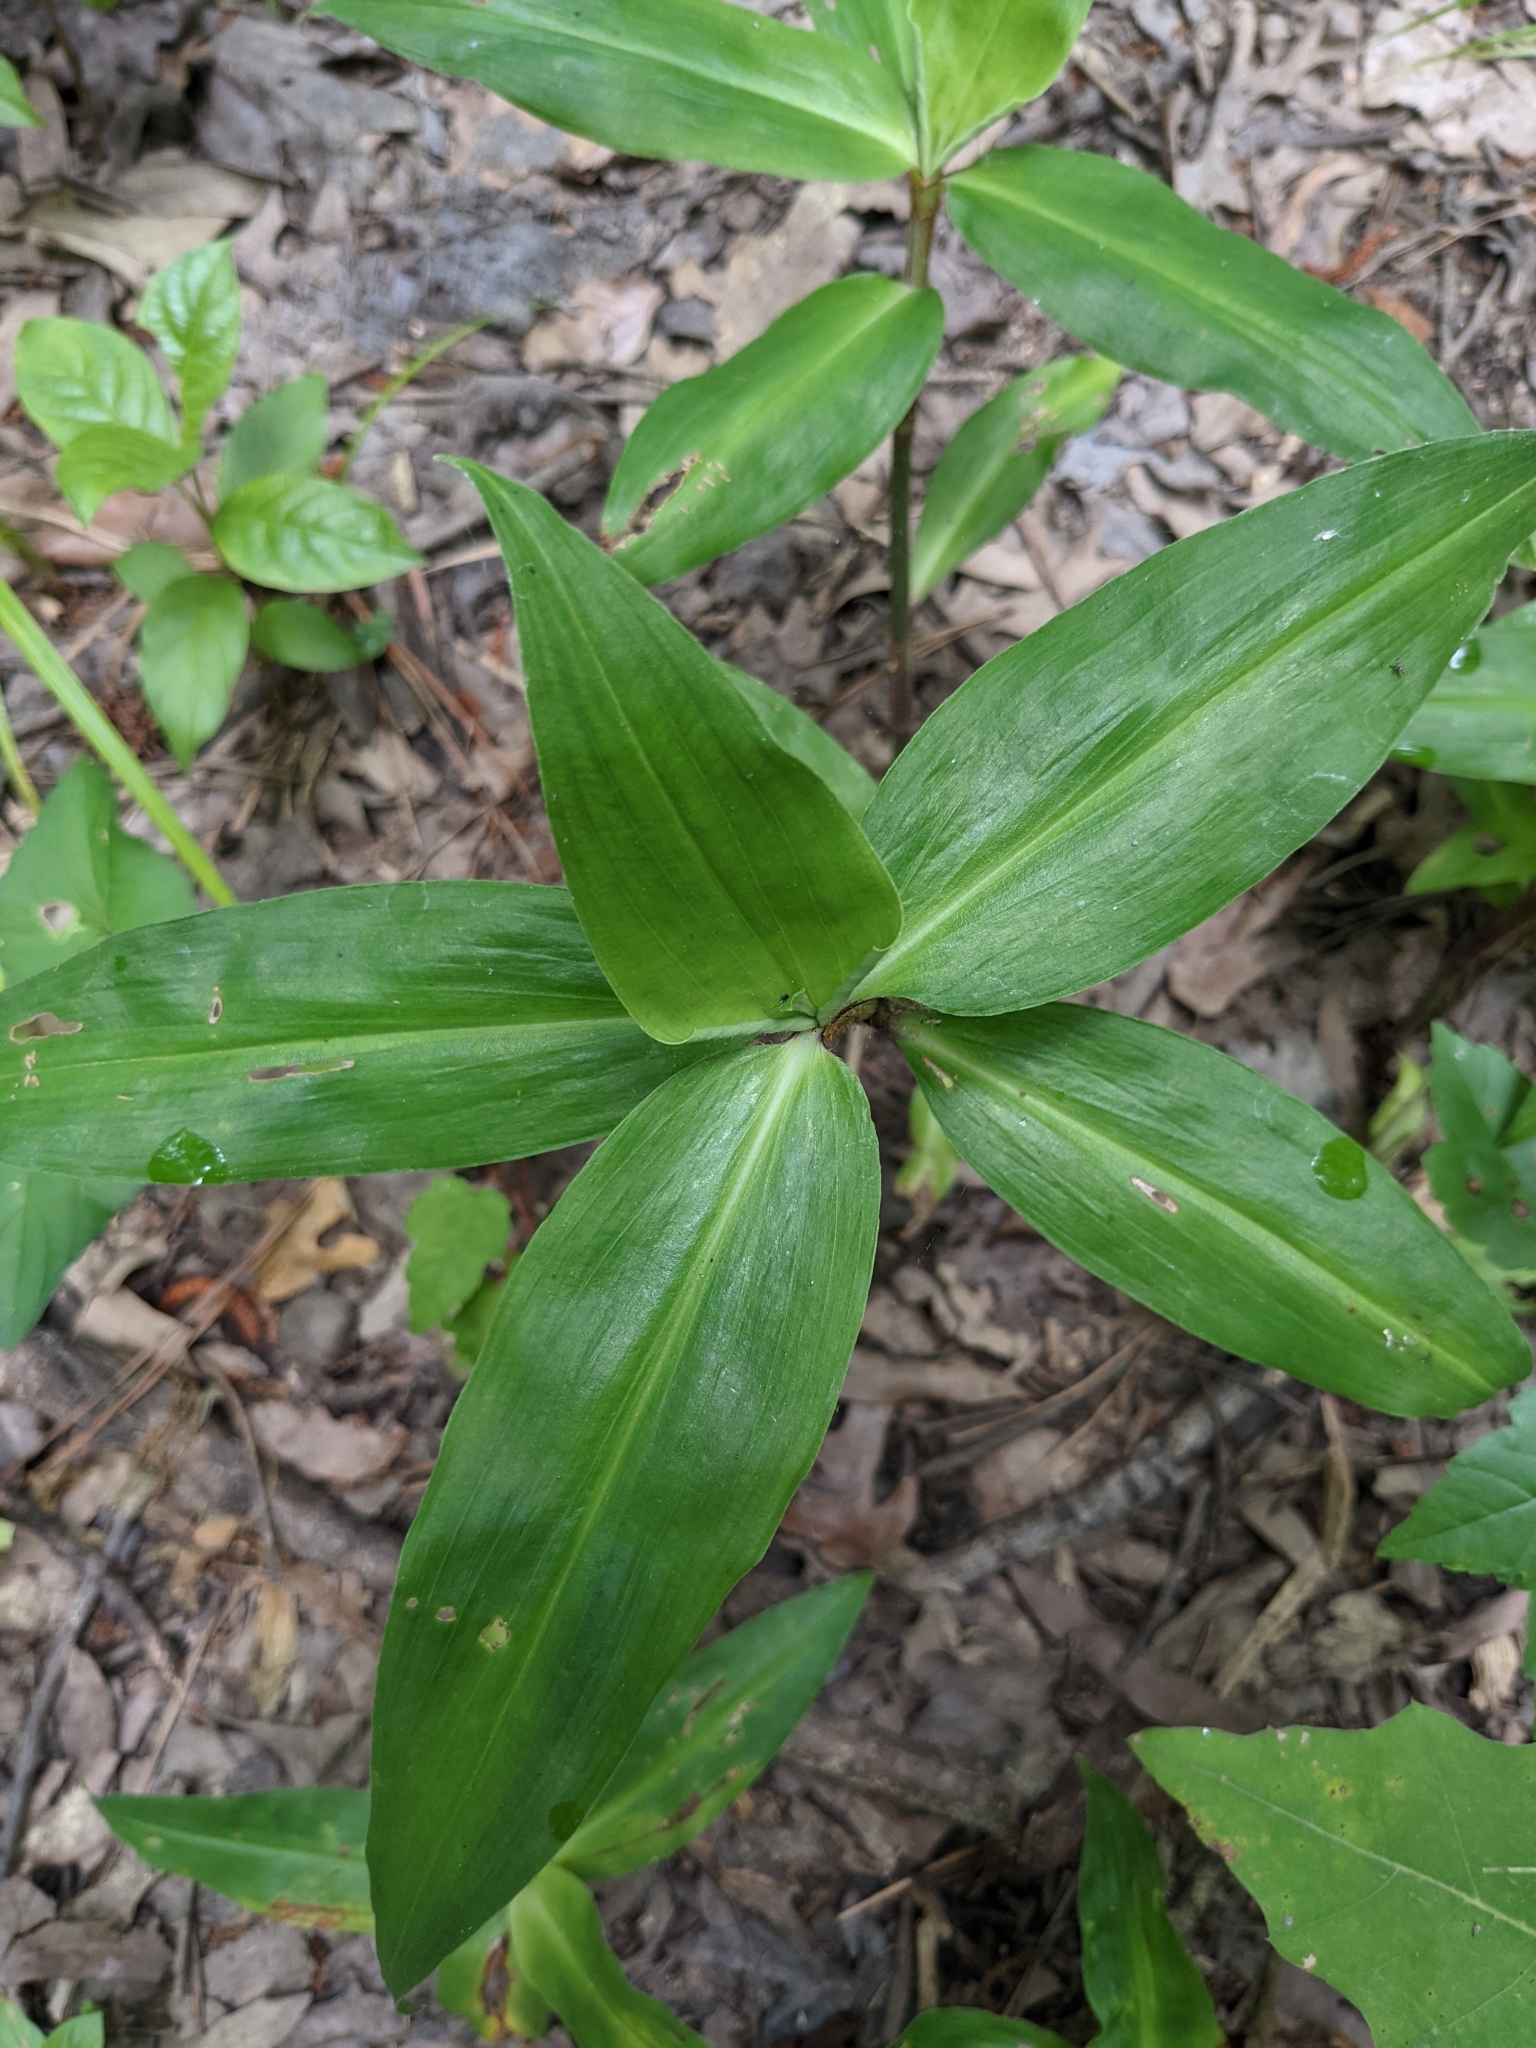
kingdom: Plantae
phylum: Tracheophyta
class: Liliopsida
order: Commelinales
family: Commelinaceae
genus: Commelina
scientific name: Commelina virginica
